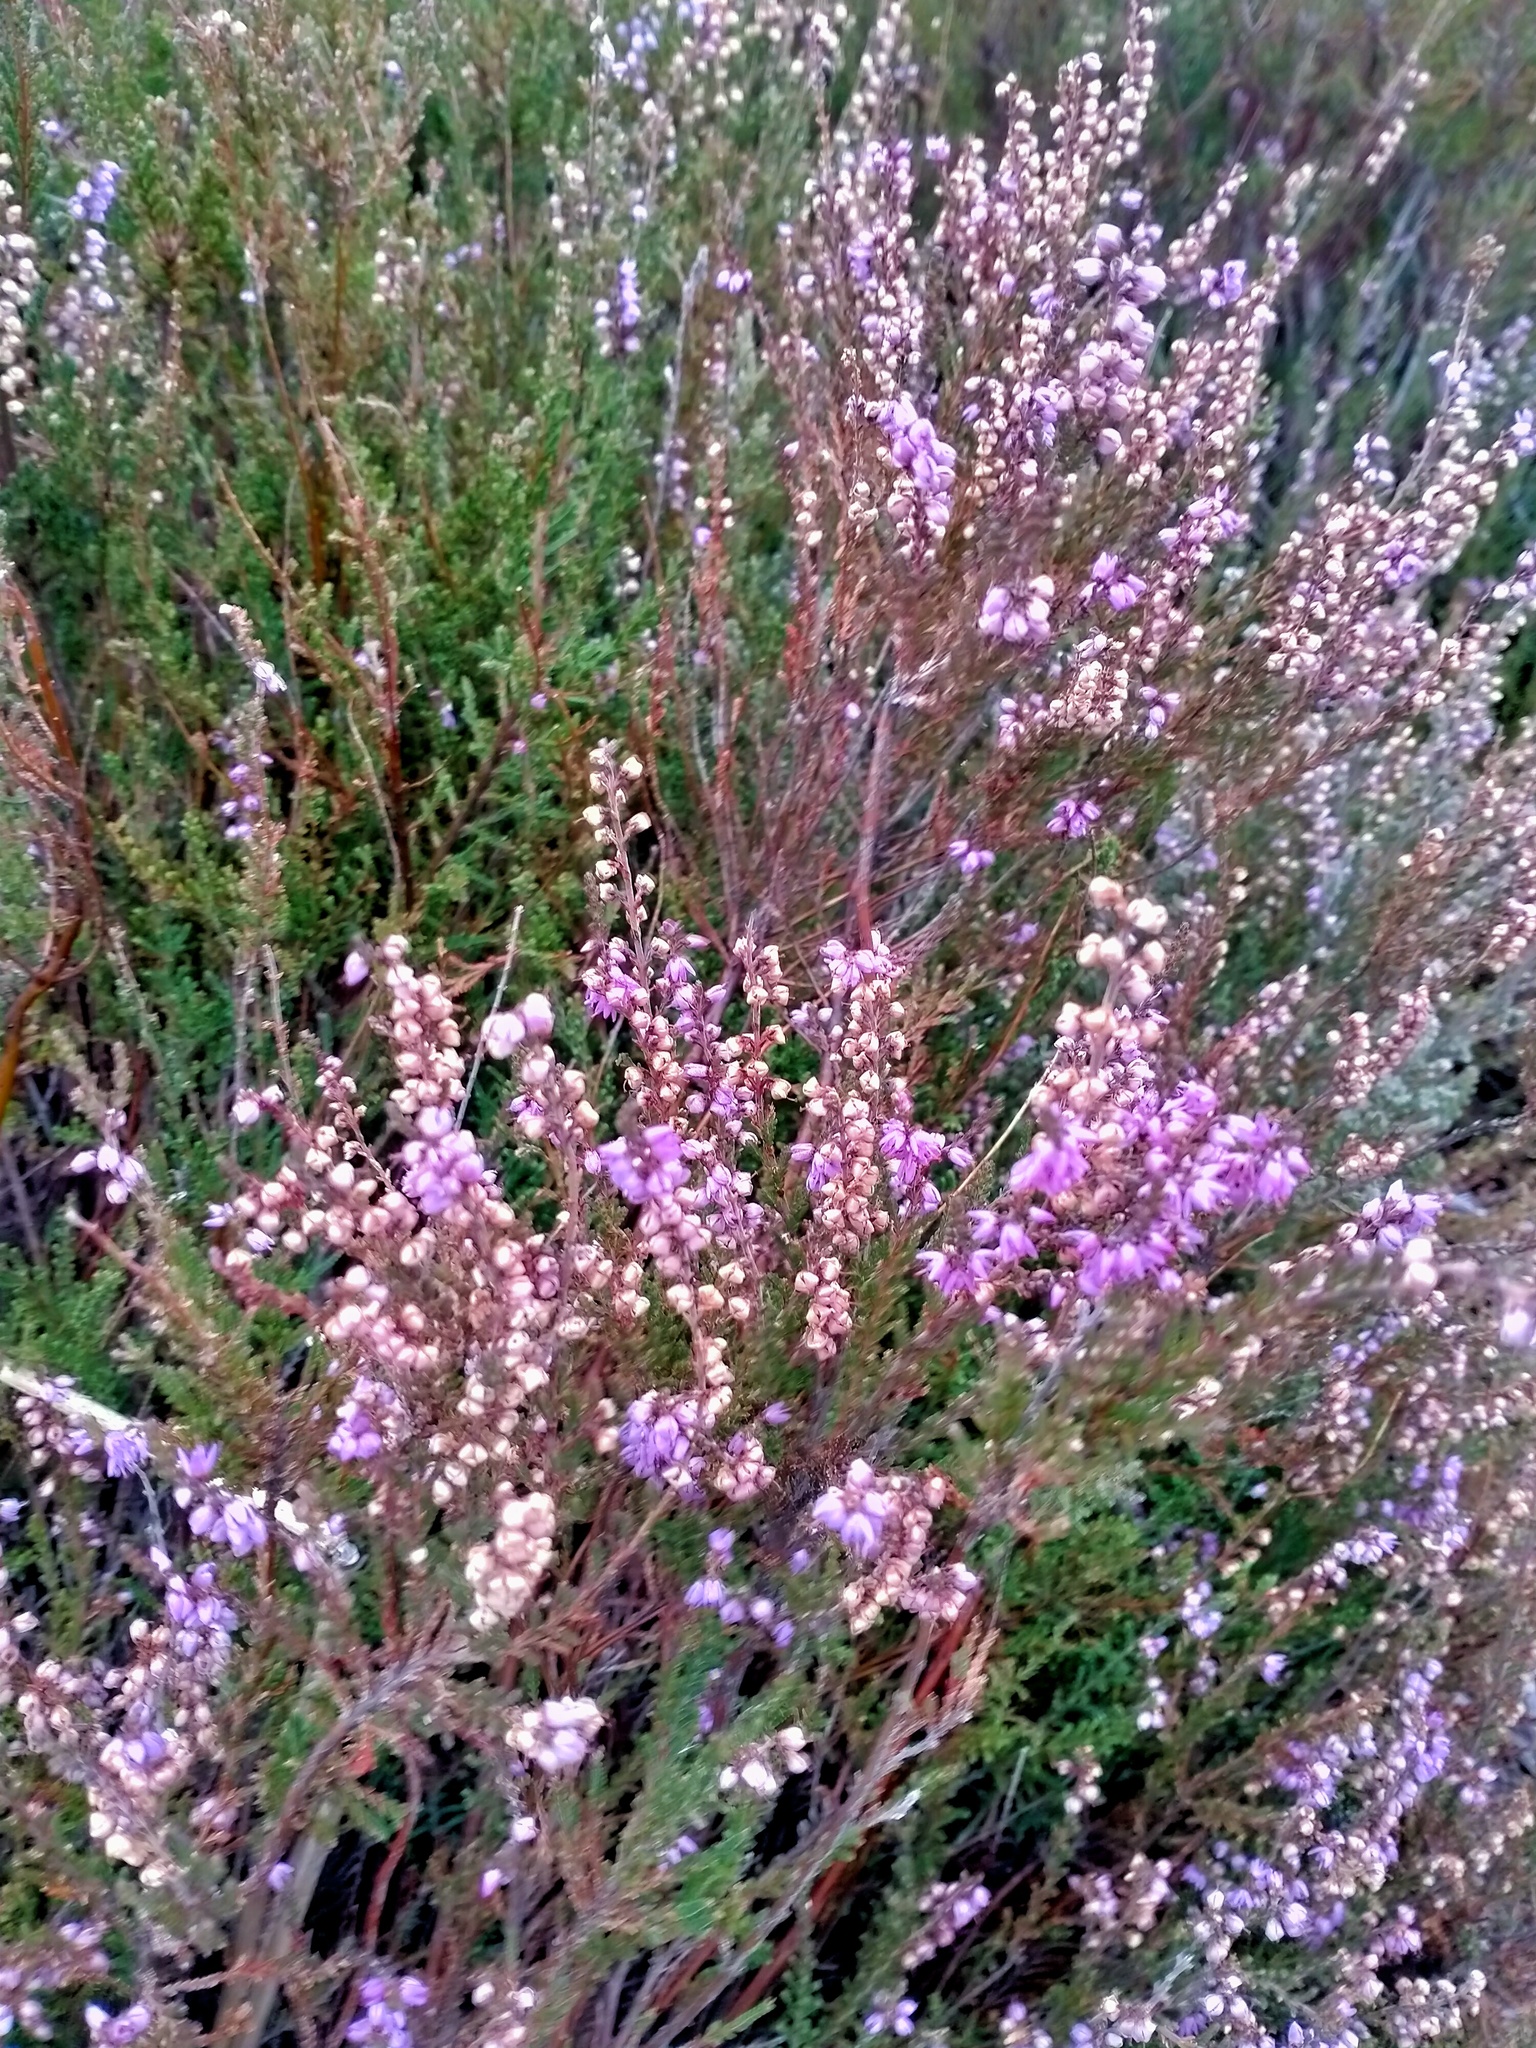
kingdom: Plantae
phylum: Tracheophyta
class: Magnoliopsida
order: Ericales
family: Ericaceae
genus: Calluna
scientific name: Calluna vulgaris
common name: Heather
